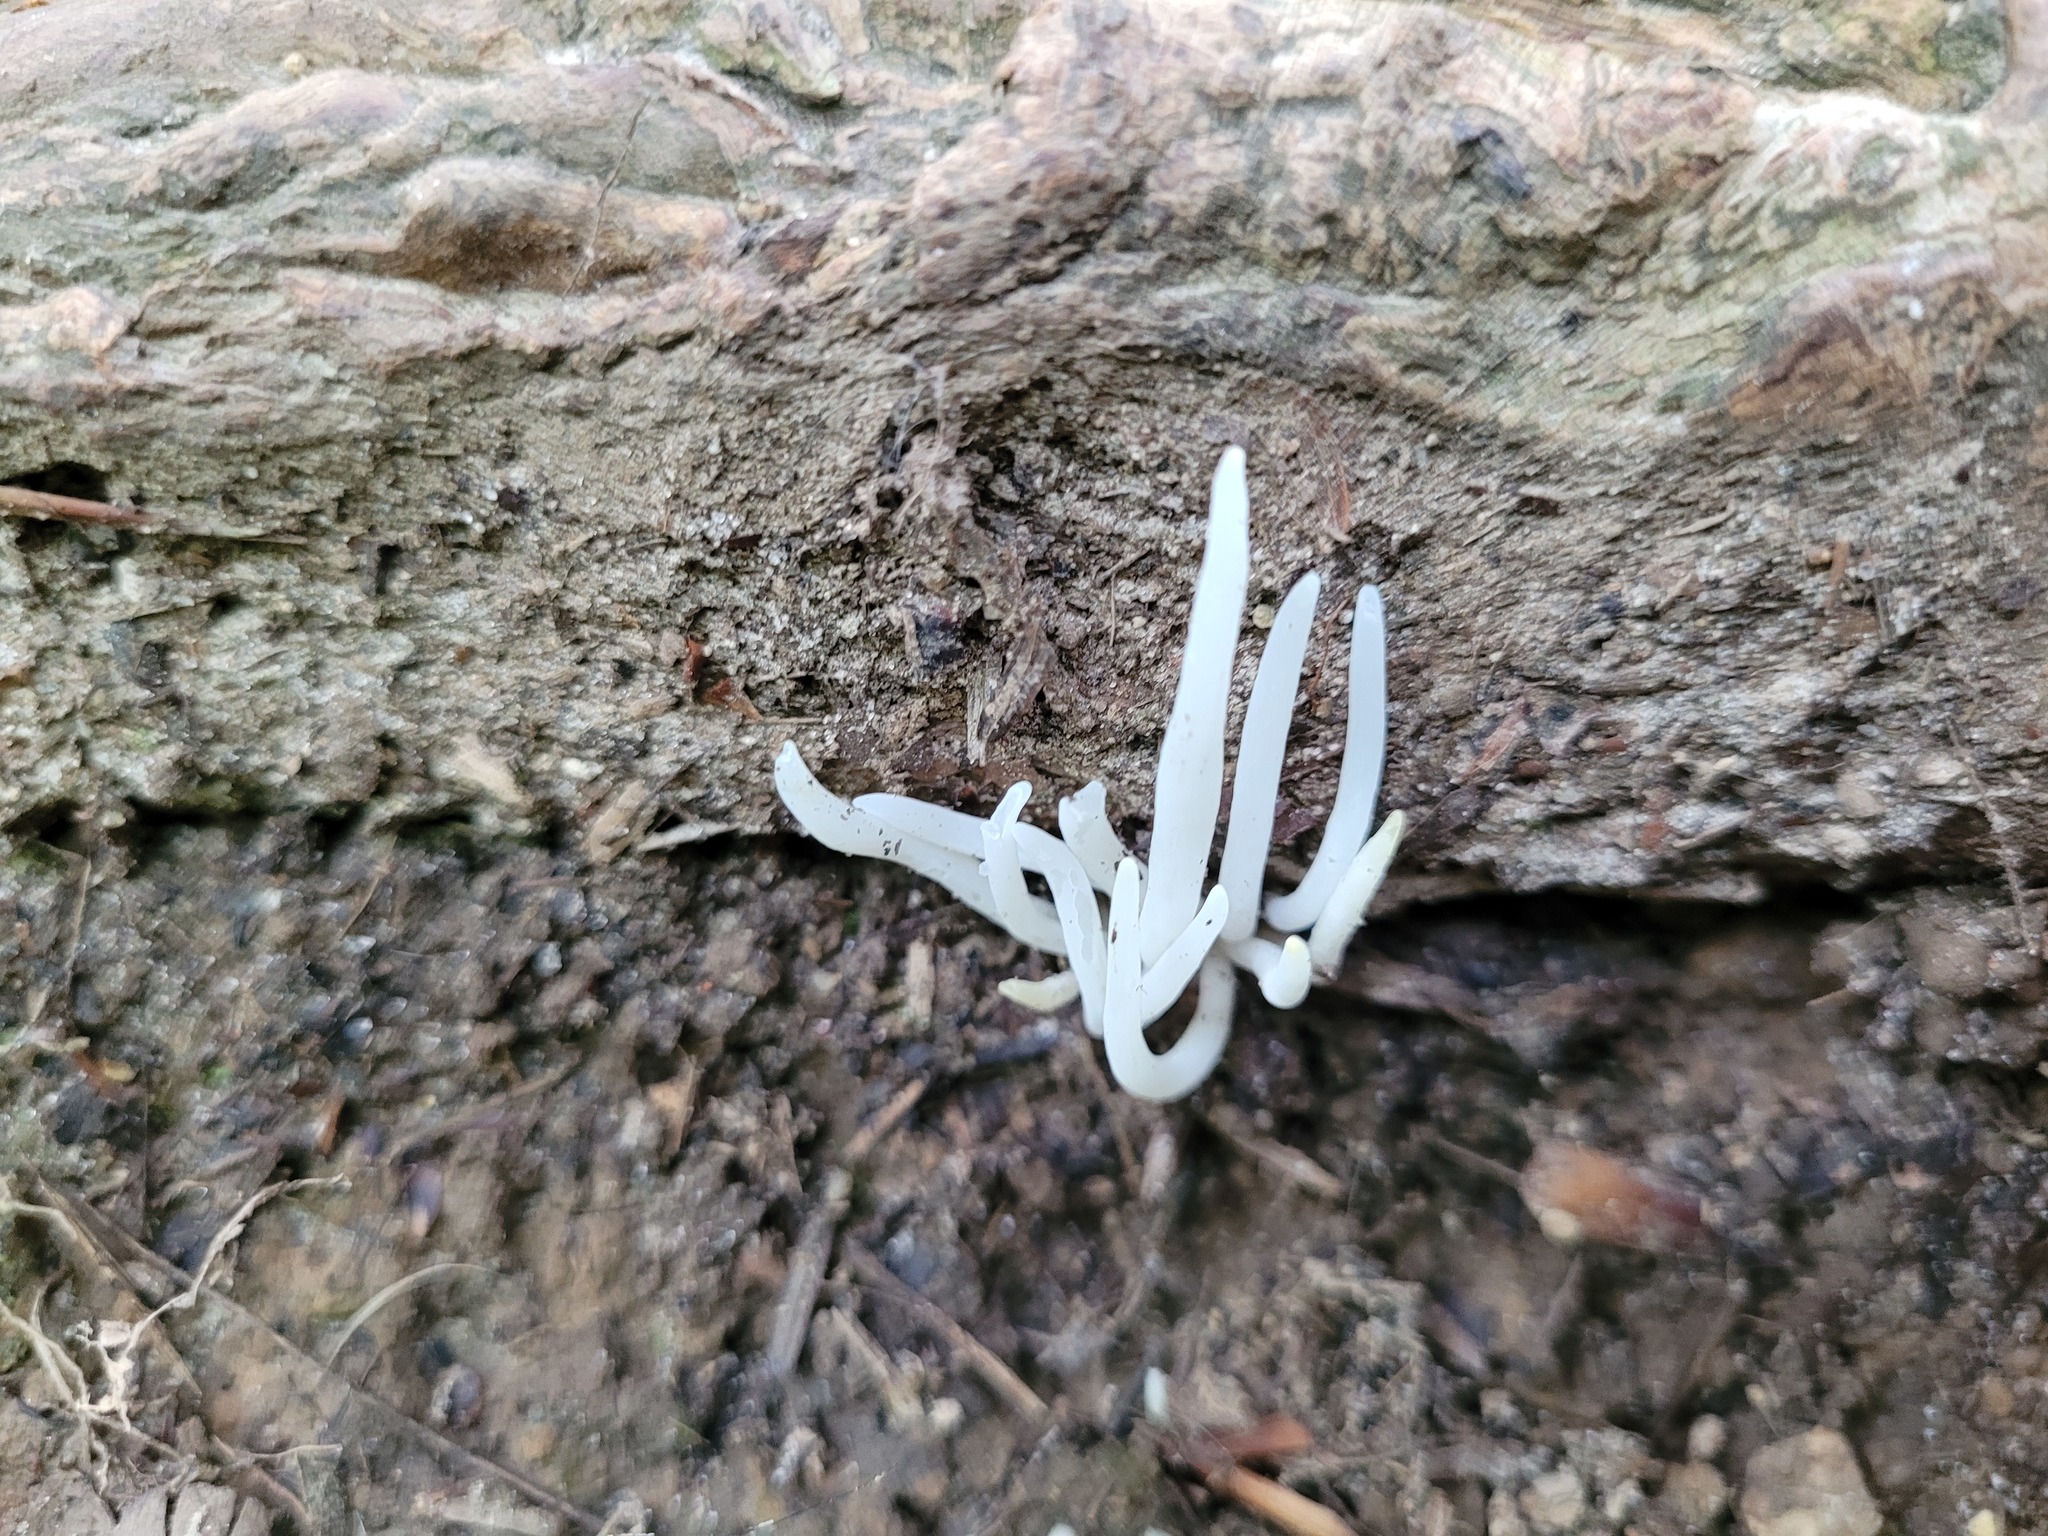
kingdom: Fungi
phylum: Basidiomycota
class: Agaricomycetes
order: Agaricales
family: Clavariaceae
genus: Clavaria
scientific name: Clavaria fragilis
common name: White spindles
